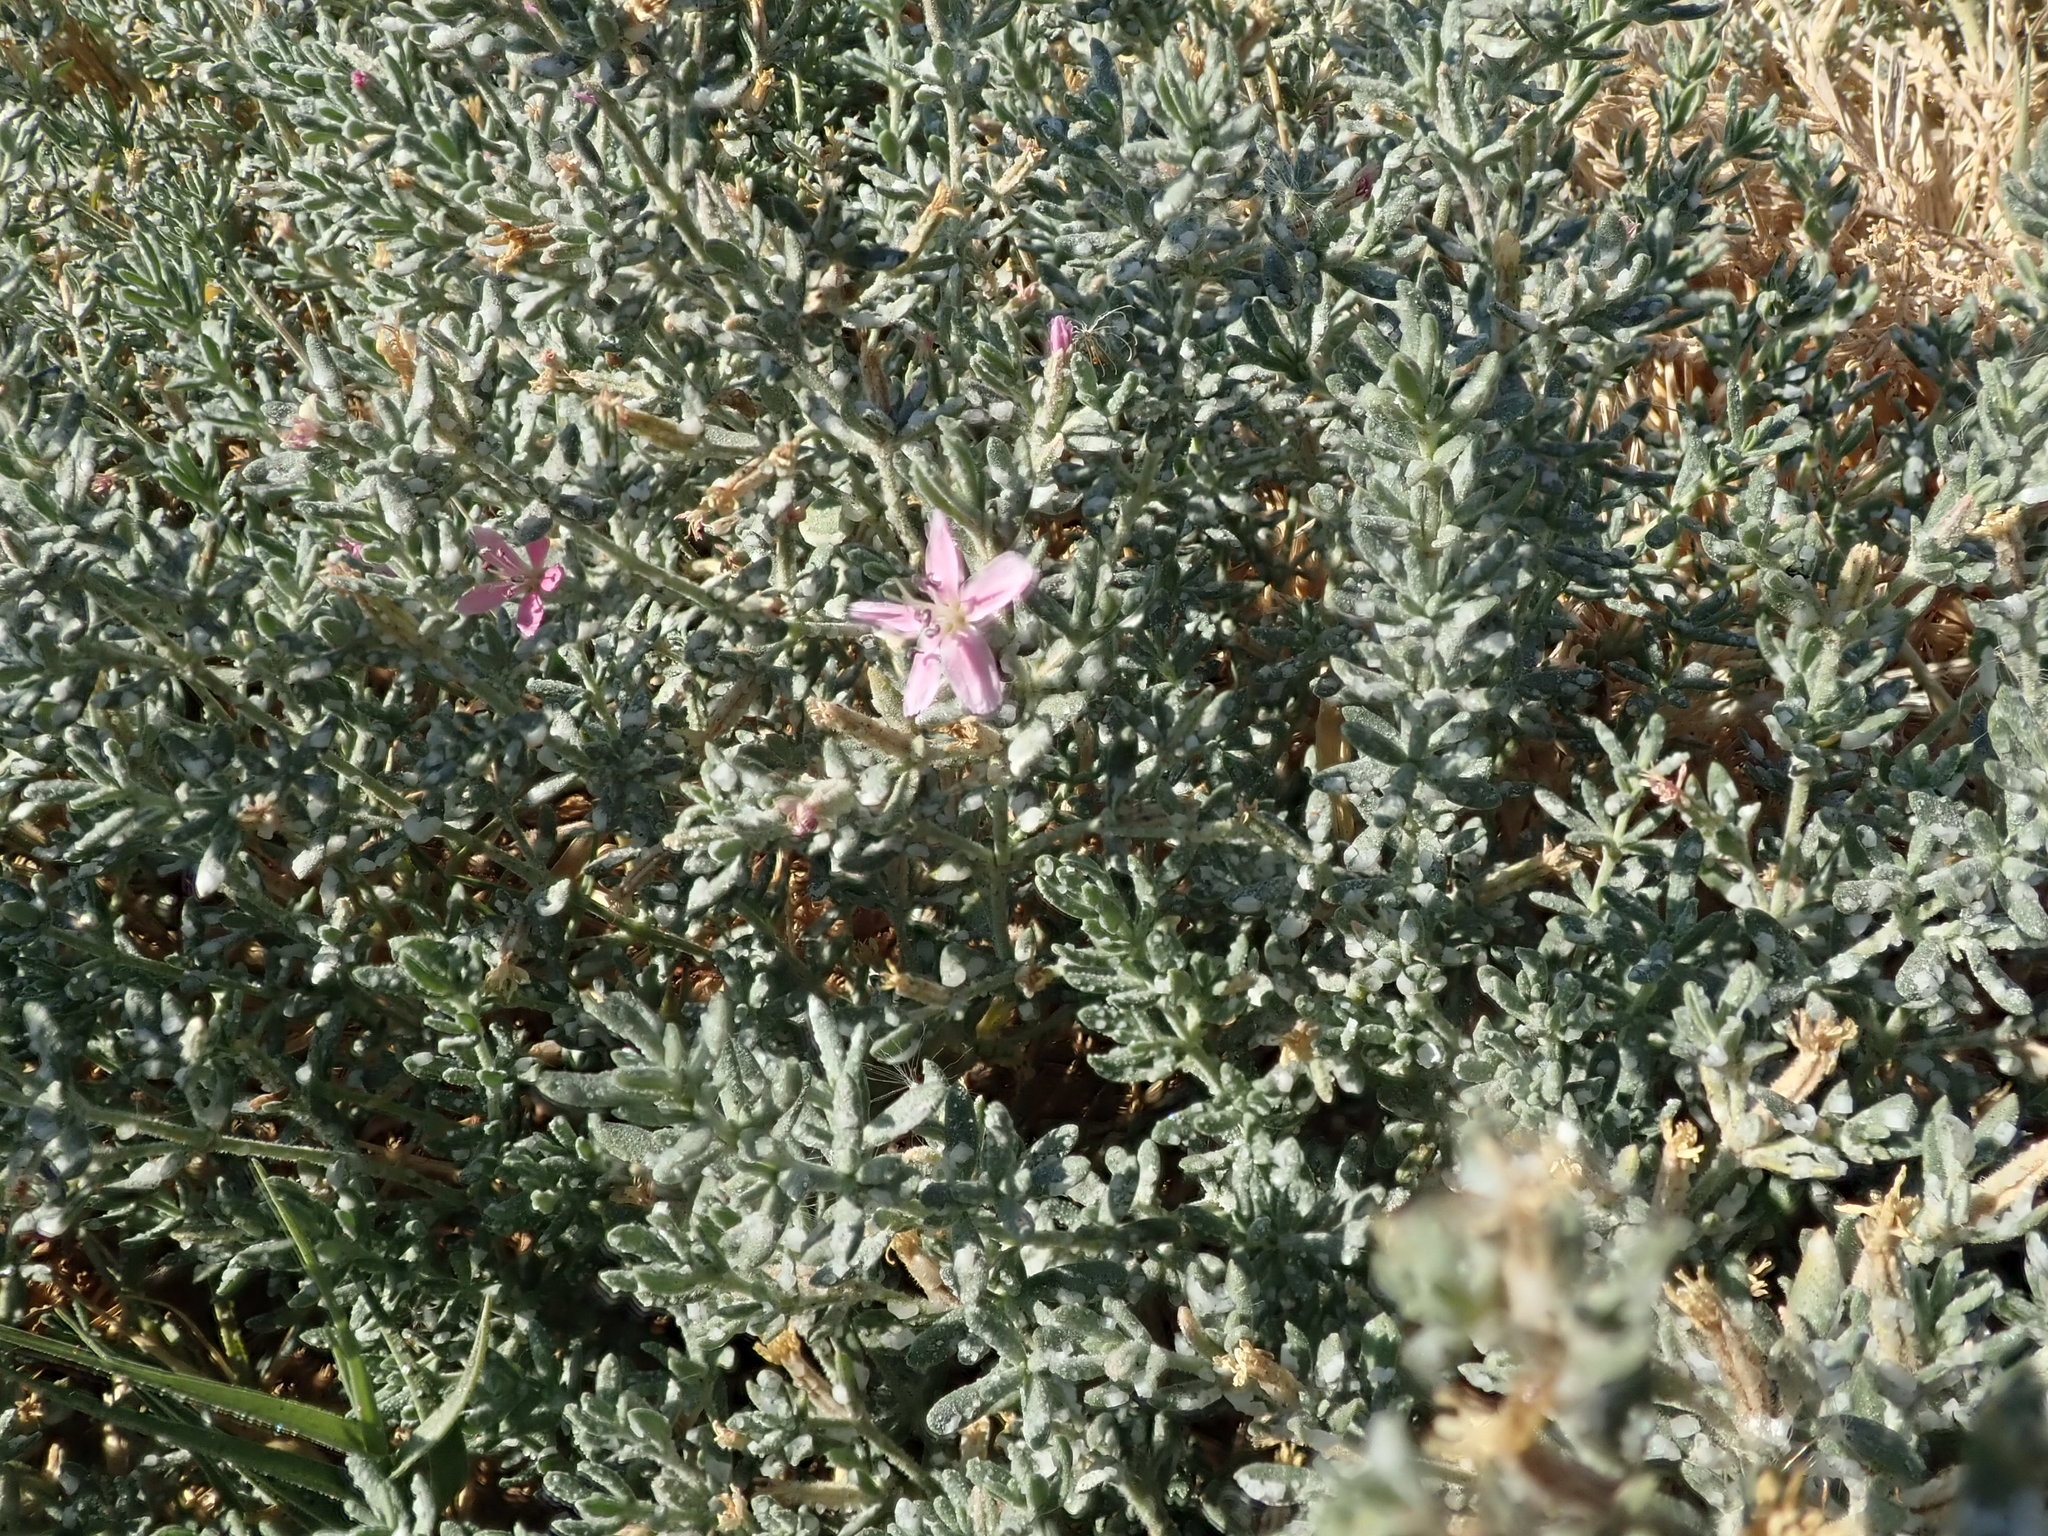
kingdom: Plantae
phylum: Tracheophyta
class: Magnoliopsida
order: Caryophyllales
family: Frankeniaceae
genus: Frankenia
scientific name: Frankenia salina
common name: Alkali seaheath
